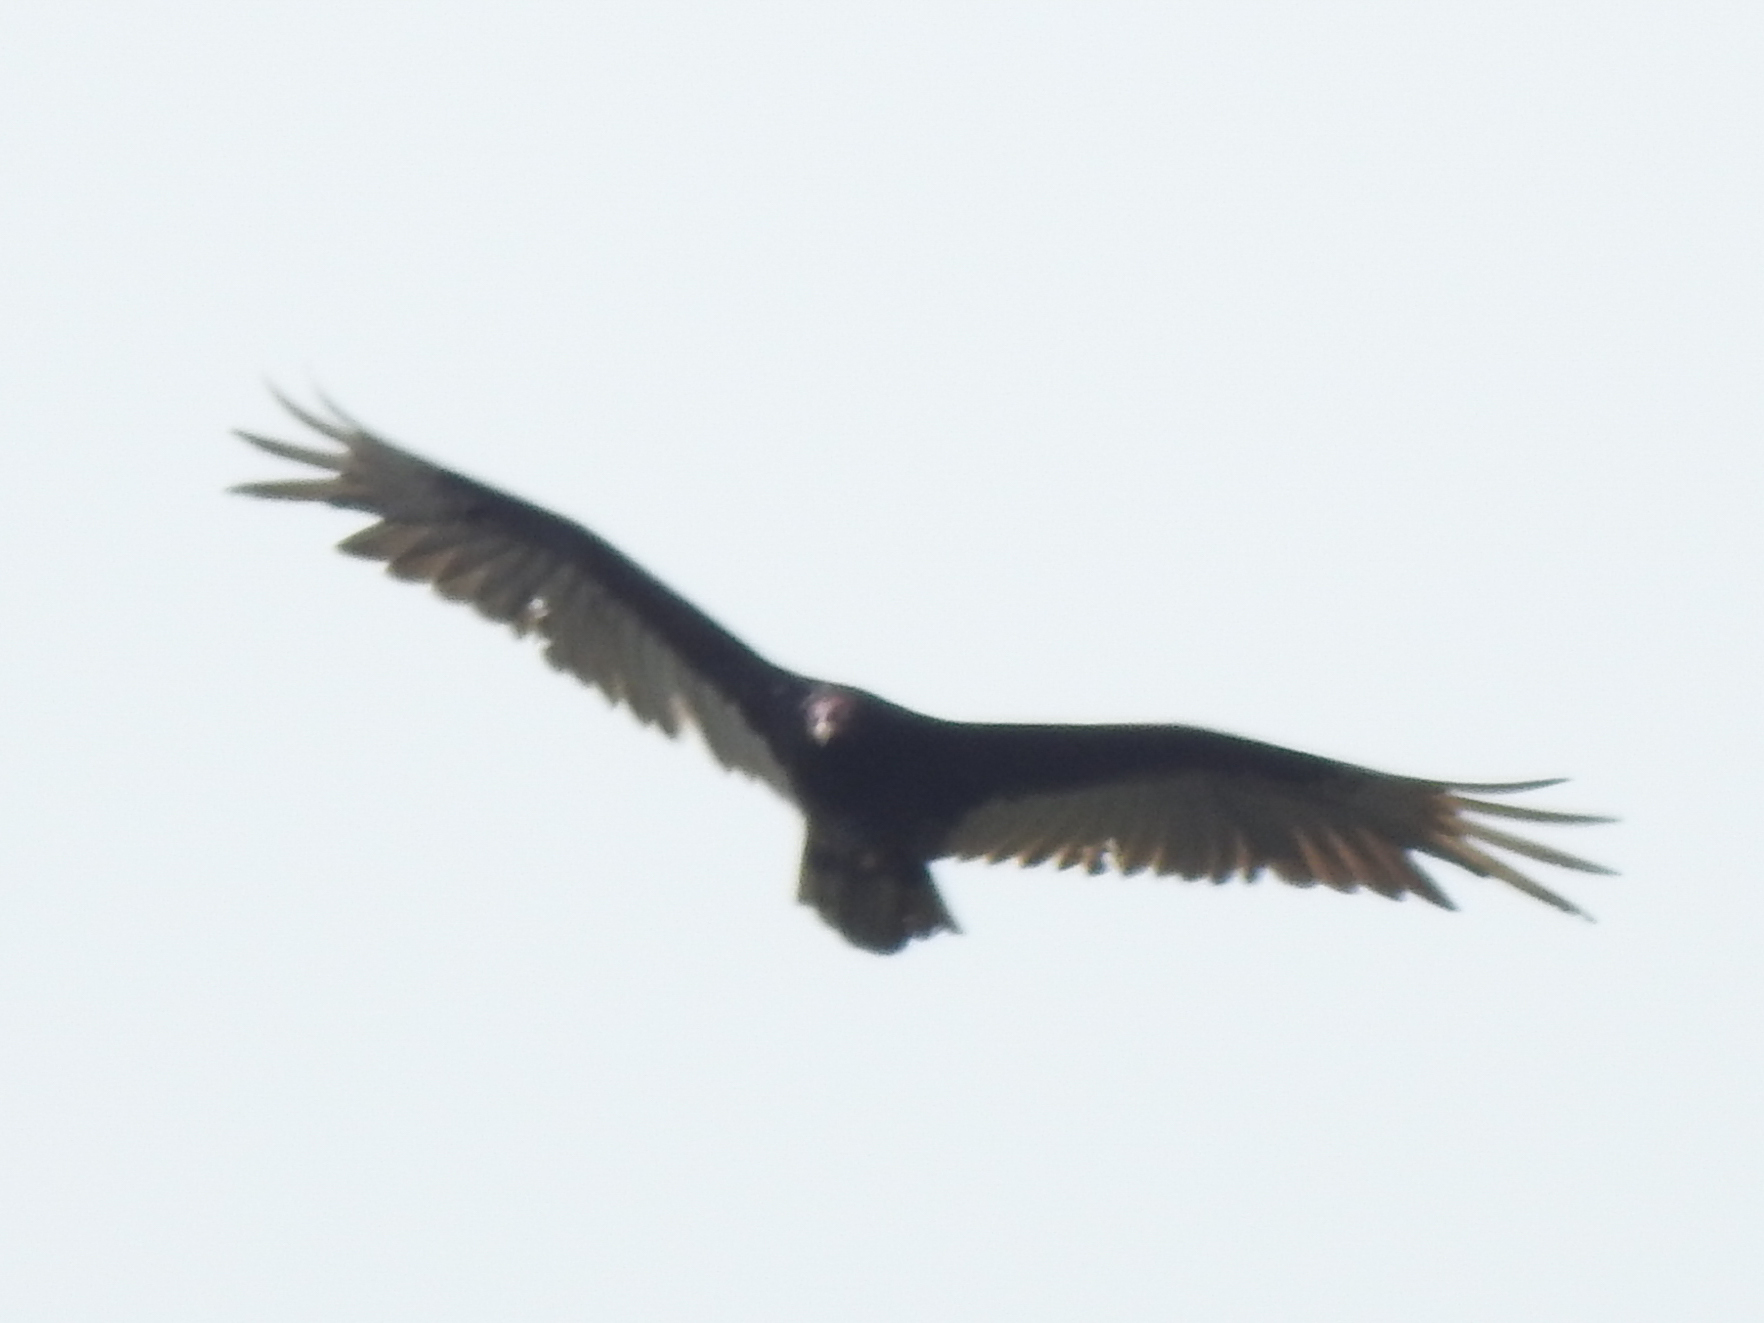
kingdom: Animalia
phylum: Chordata
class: Aves
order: Accipitriformes
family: Cathartidae
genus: Cathartes
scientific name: Cathartes aura
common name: Turkey vulture
